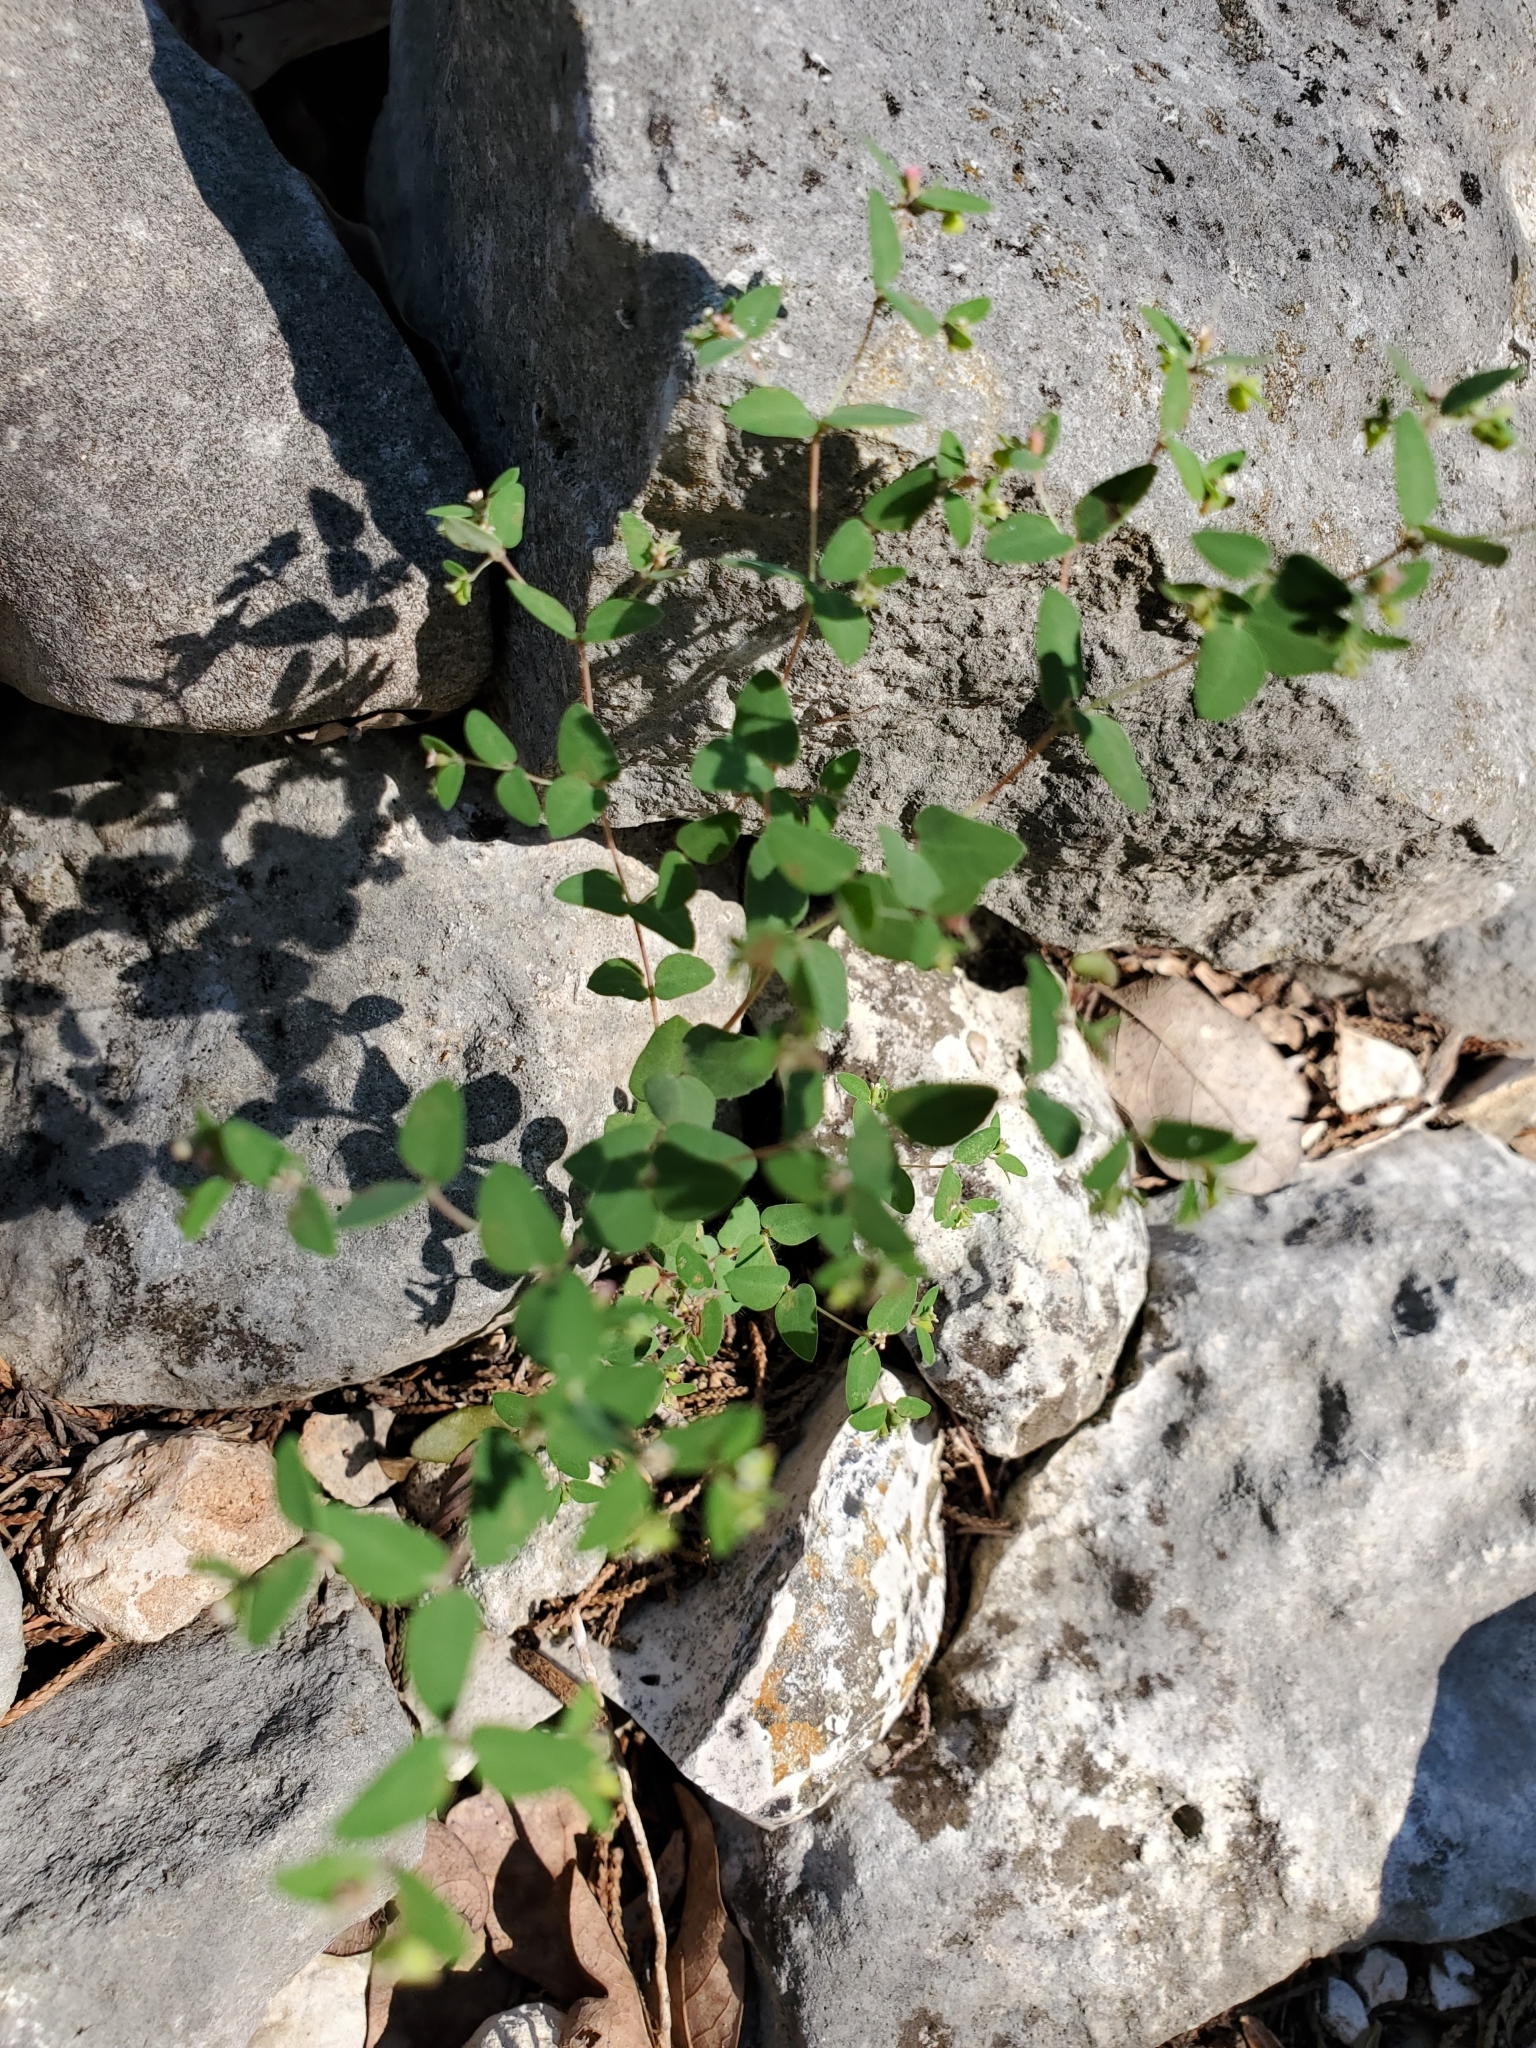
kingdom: Plantae
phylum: Tracheophyta
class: Magnoliopsida
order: Malpighiales
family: Euphorbiaceae
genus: Euphorbia
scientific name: Euphorbia villifera
